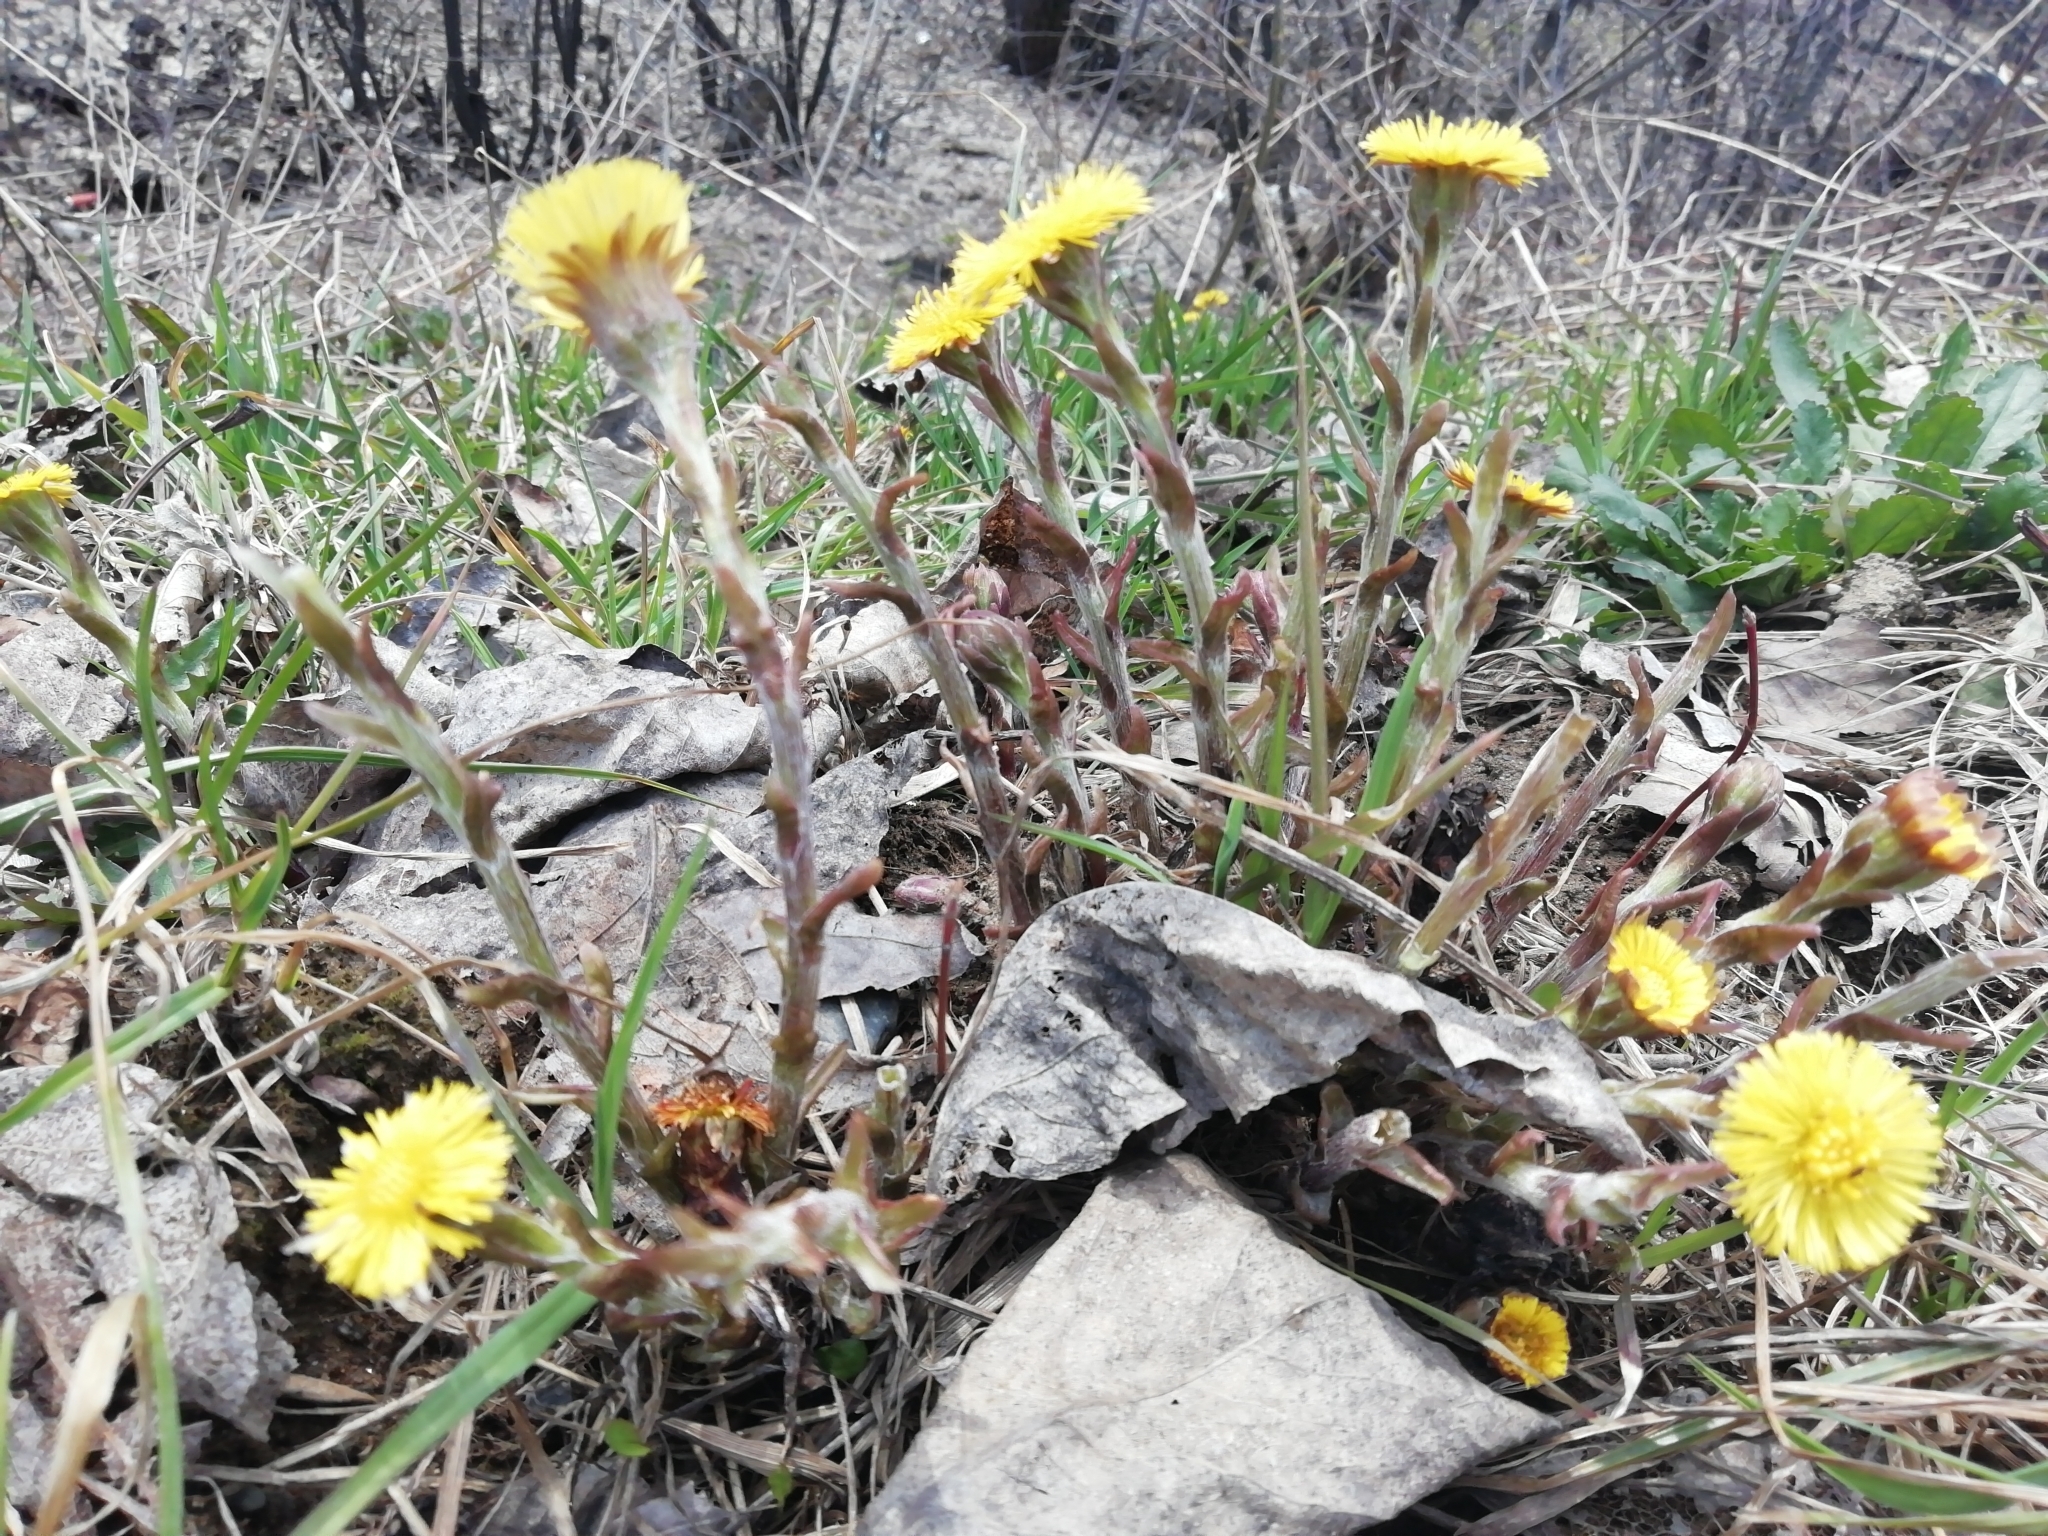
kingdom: Plantae
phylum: Tracheophyta
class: Magnoliopsida
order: Asterales
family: Asteraceae
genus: Tussilago
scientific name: Tussilago farfara
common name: Coltsfoot
